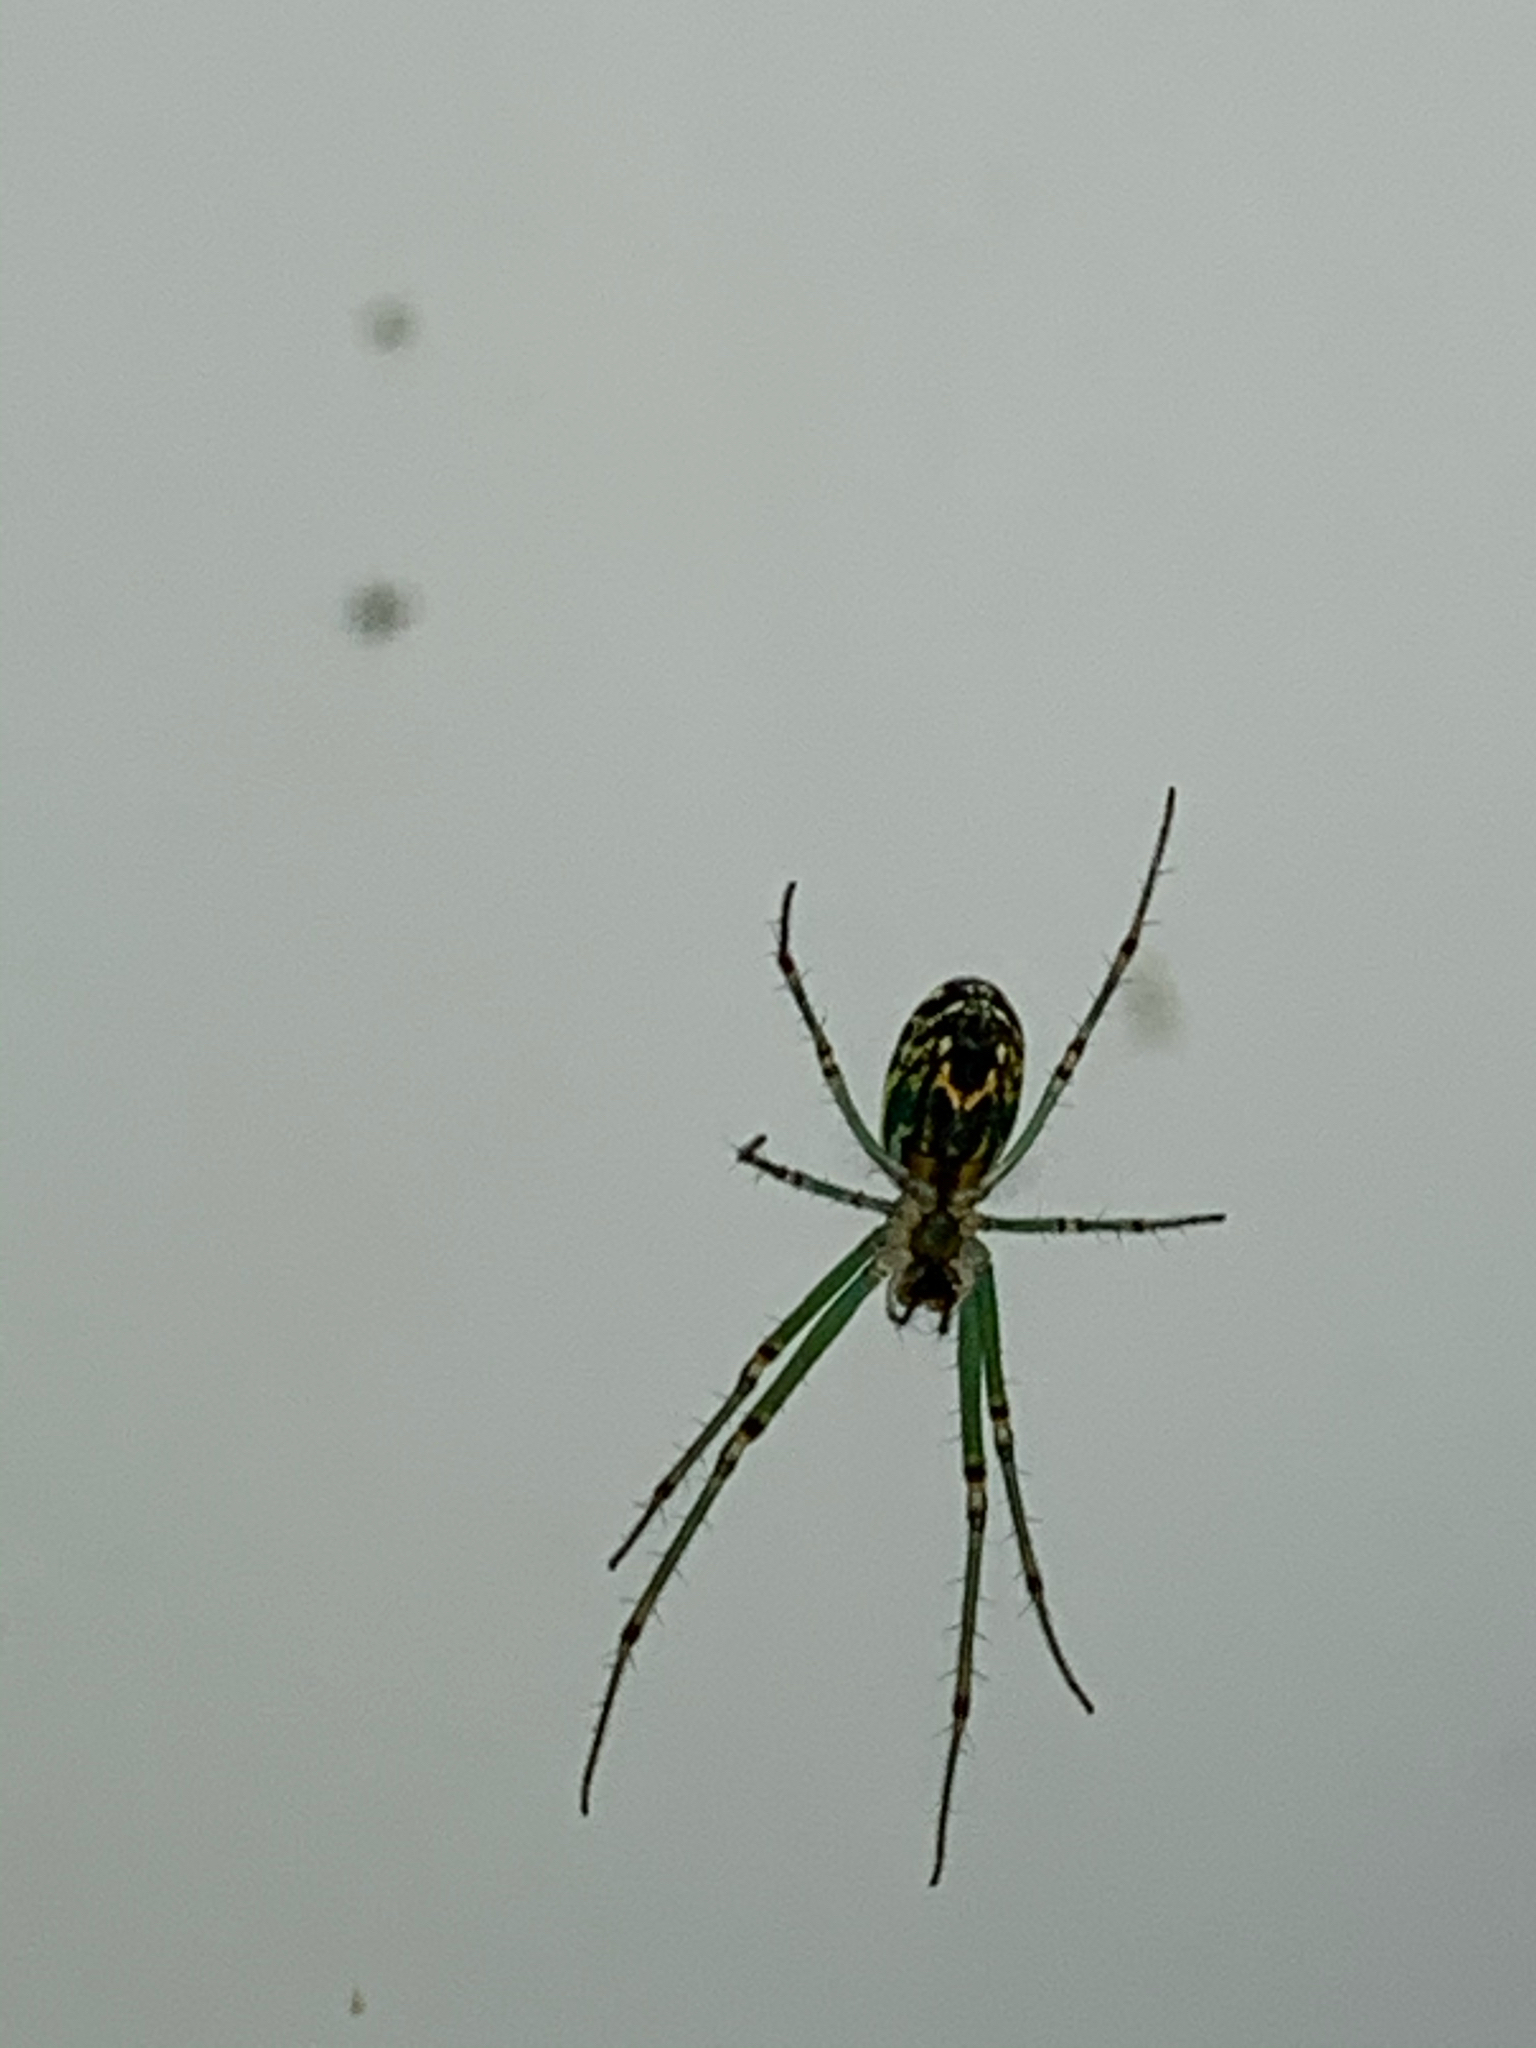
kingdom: Animalia
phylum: Arthropoda
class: Arachnida
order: Araneae
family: Tetragnathidae
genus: Leucauge
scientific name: Leucauge venusta
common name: Longjawed orb weavers
